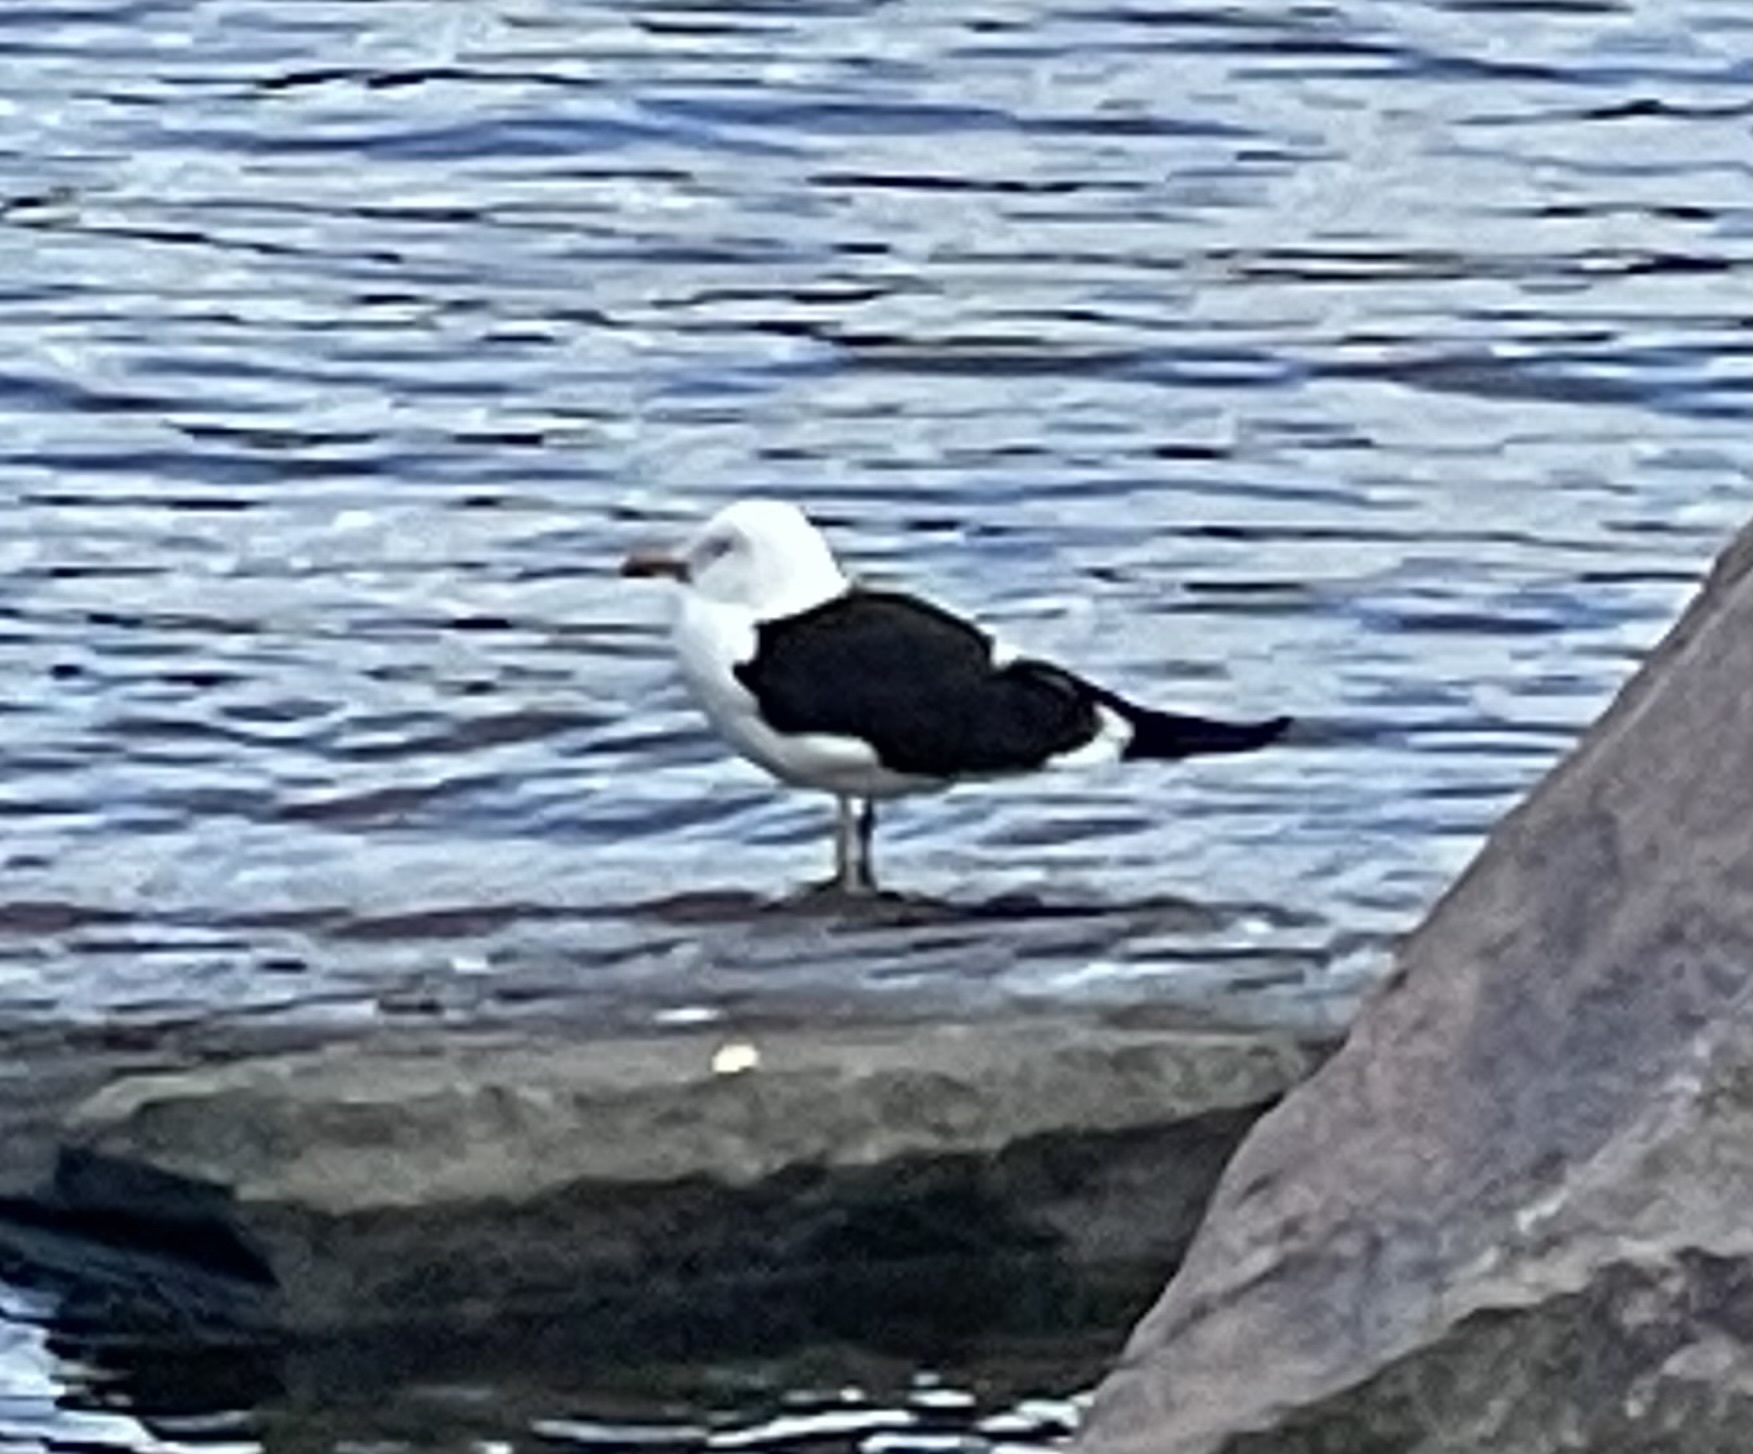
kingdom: Animalia
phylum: Chordata
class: Aves
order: Charadriiformes
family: Laridae
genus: Larus
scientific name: Larus fuscus
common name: Lesser black-backed gull
